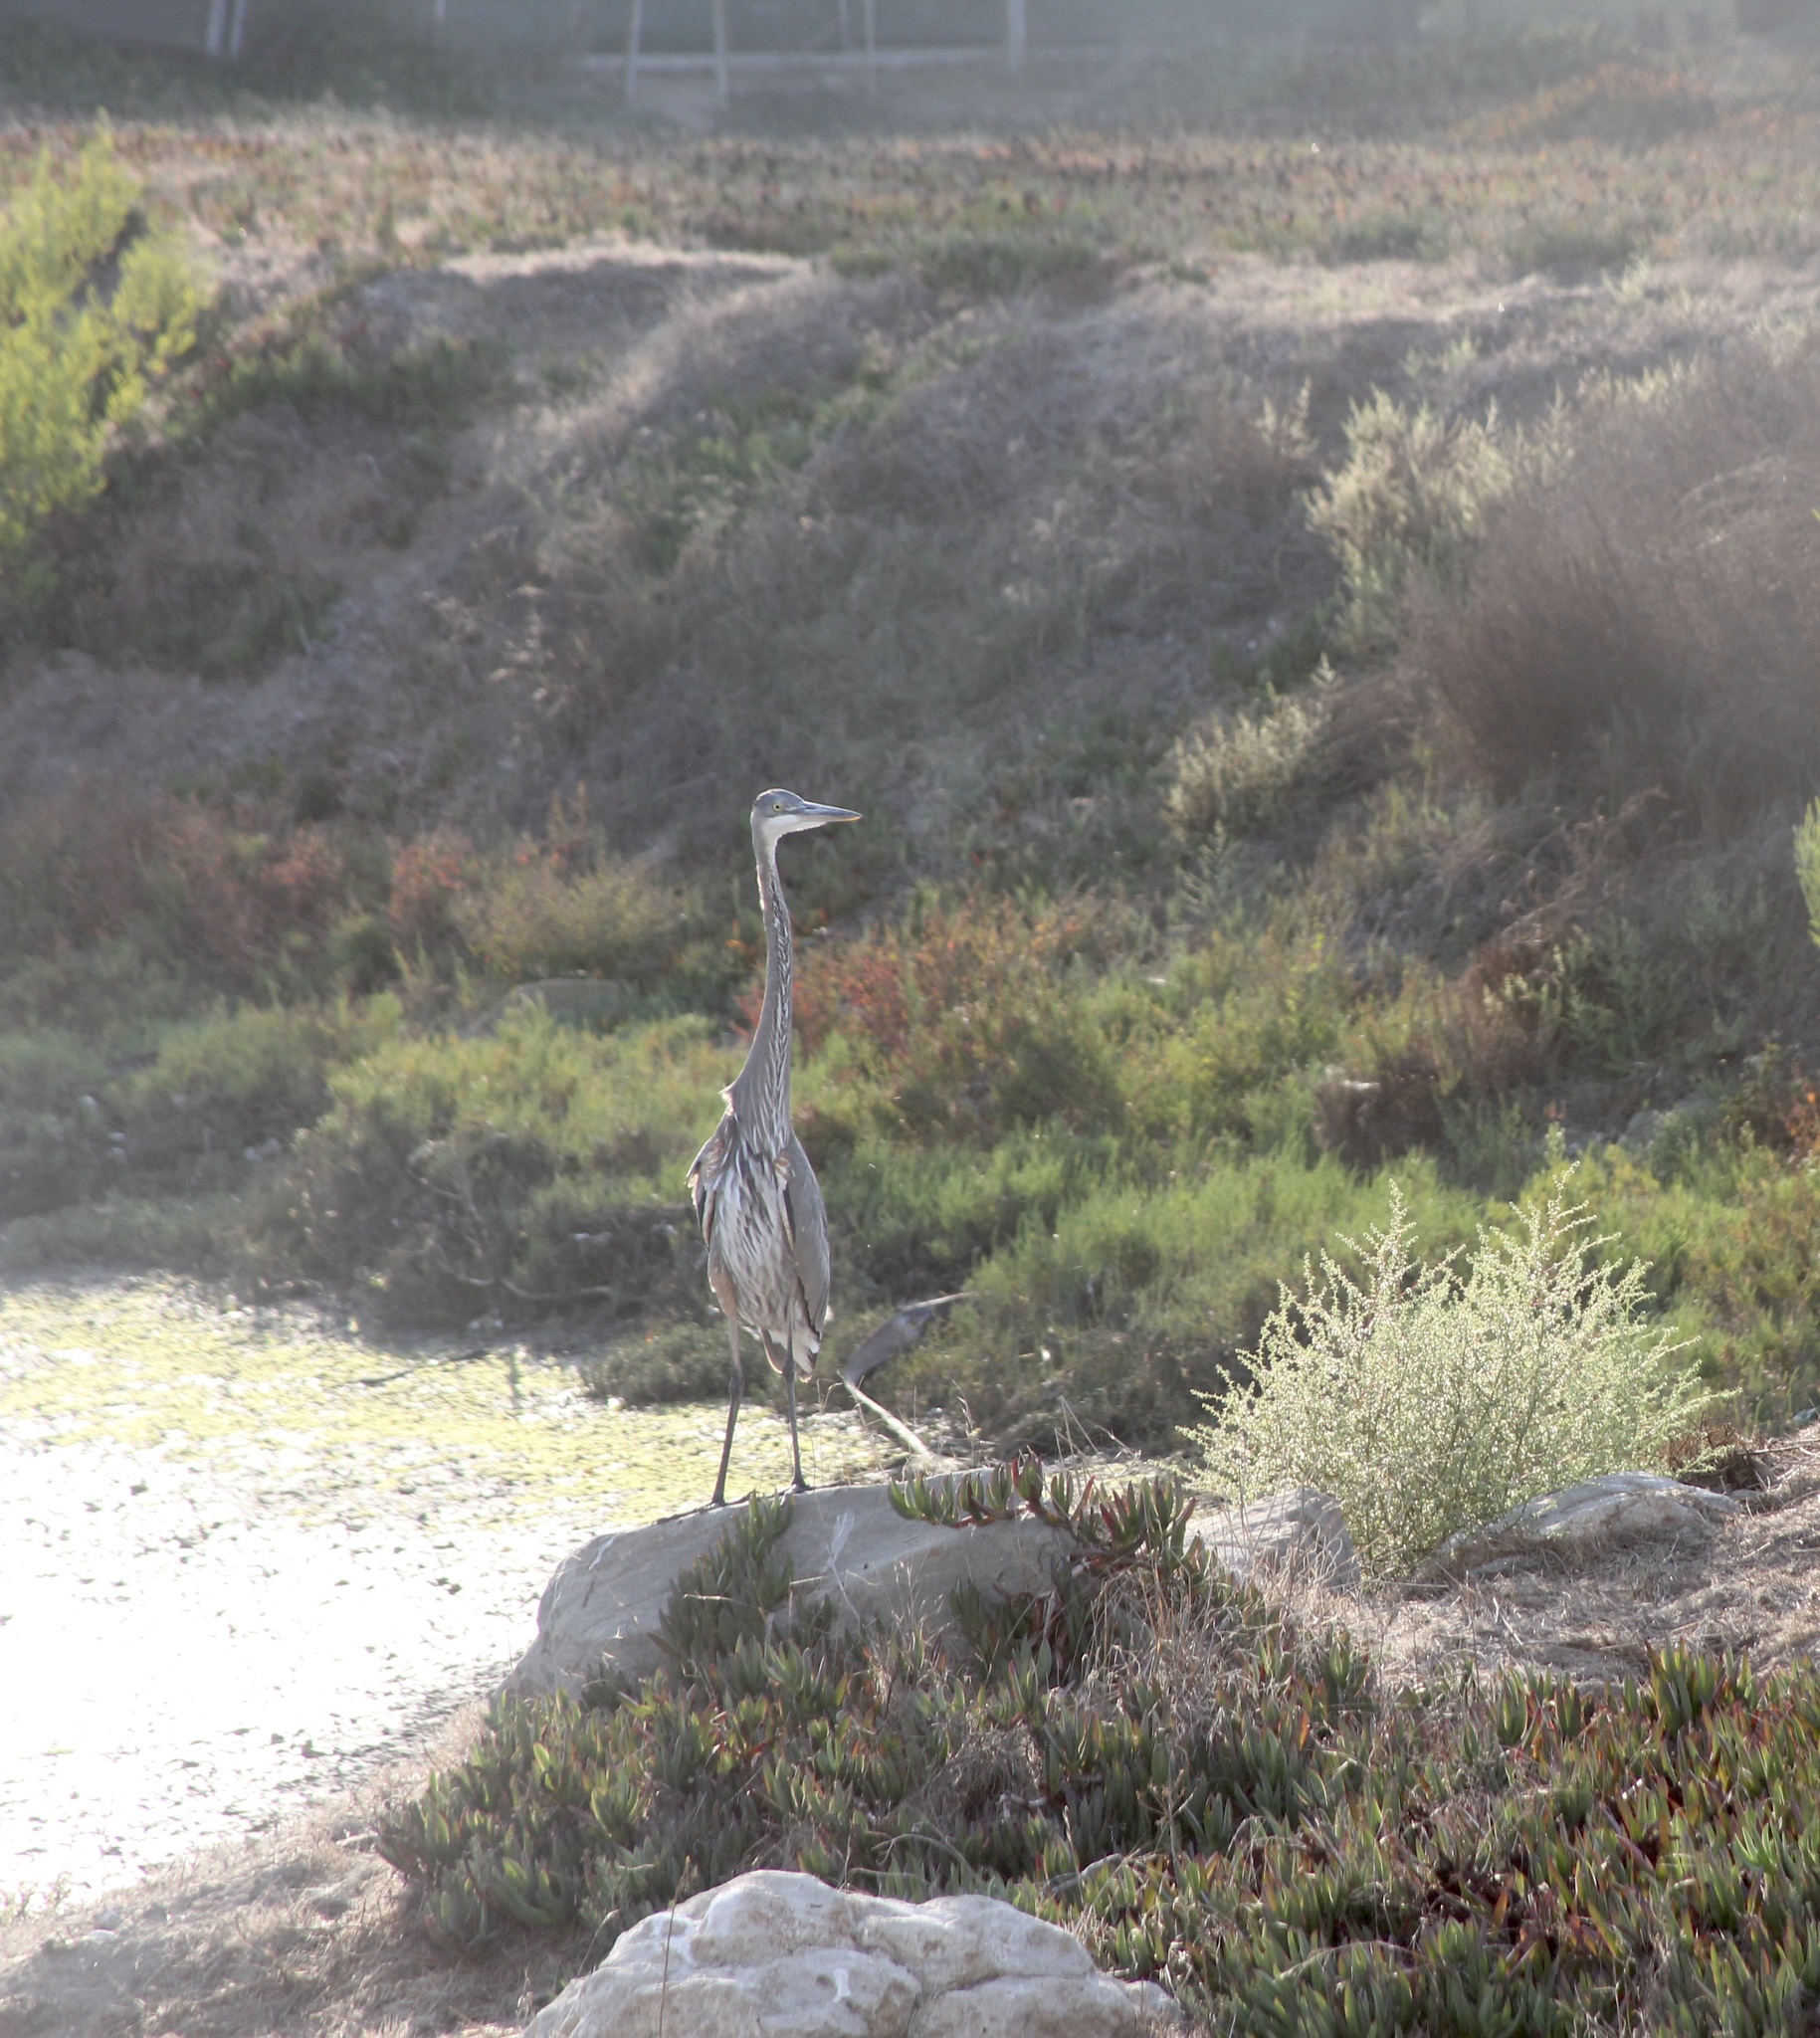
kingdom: Animalia
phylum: Chordata
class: Aves
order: Pelecaniformes
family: Ardeidae
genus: Ardea
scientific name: Ardea herodias
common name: Great blue heron
